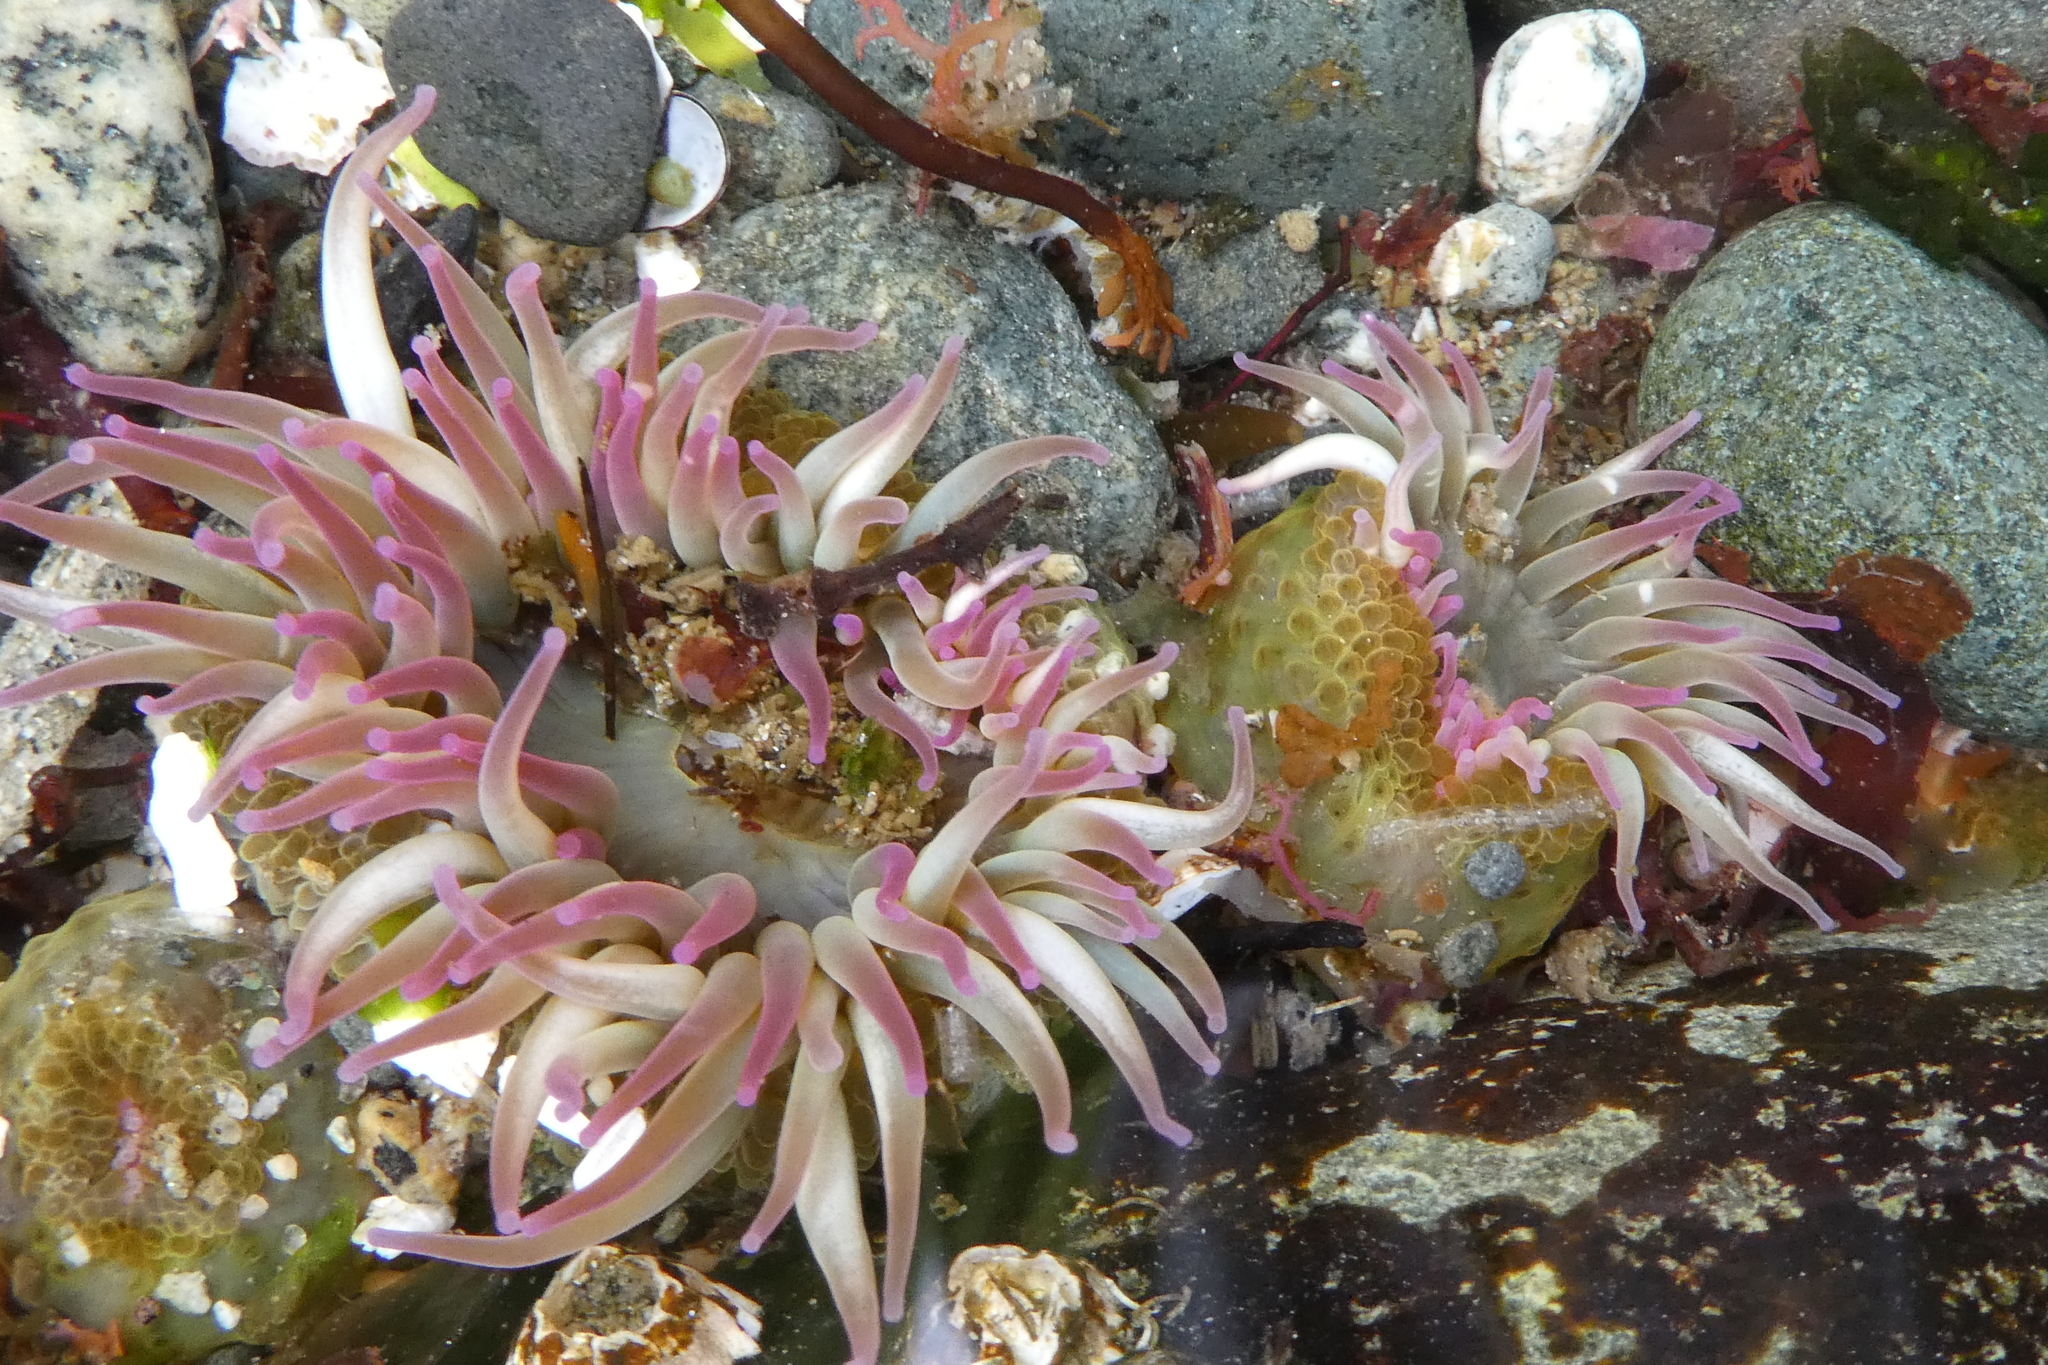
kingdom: Animalia
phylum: Cnidaria
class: Anthozoa
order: Actiniaria
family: Actiniidae
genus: Anthopleura
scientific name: Anthopleura elegantissima
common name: Clonal anemone
